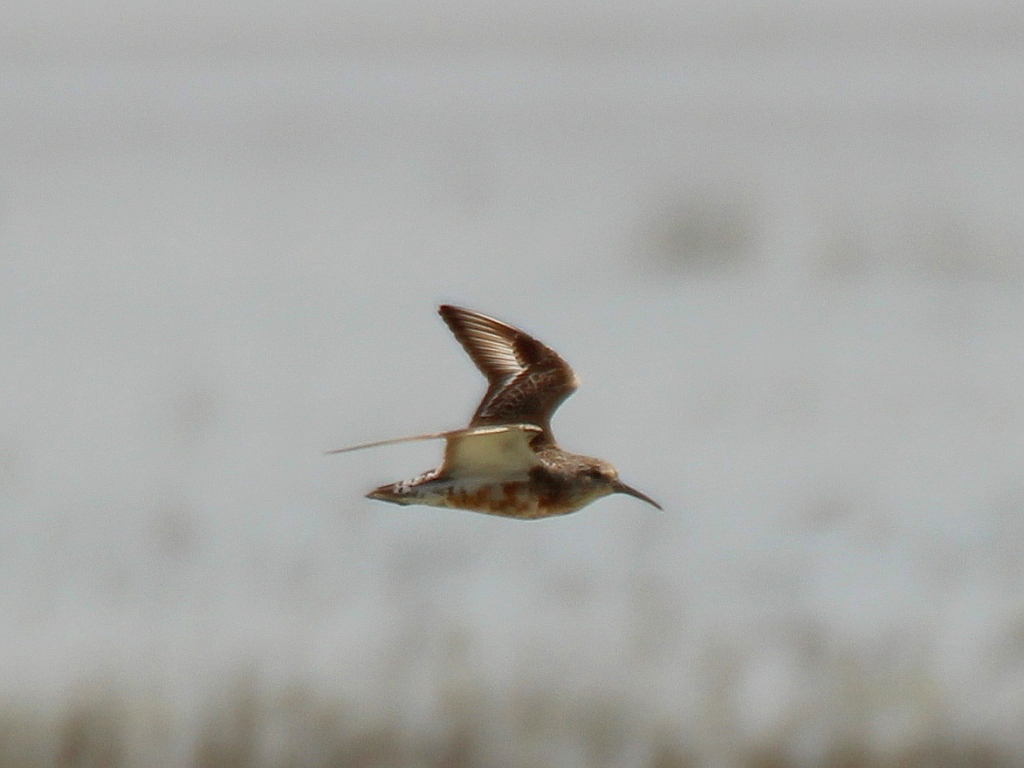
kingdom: Animalia
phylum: Chordata
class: Aves
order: Charadriiformes
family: Scolopacidae
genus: Calidris
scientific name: Calidris ferruginea
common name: Curlew sandpiper
